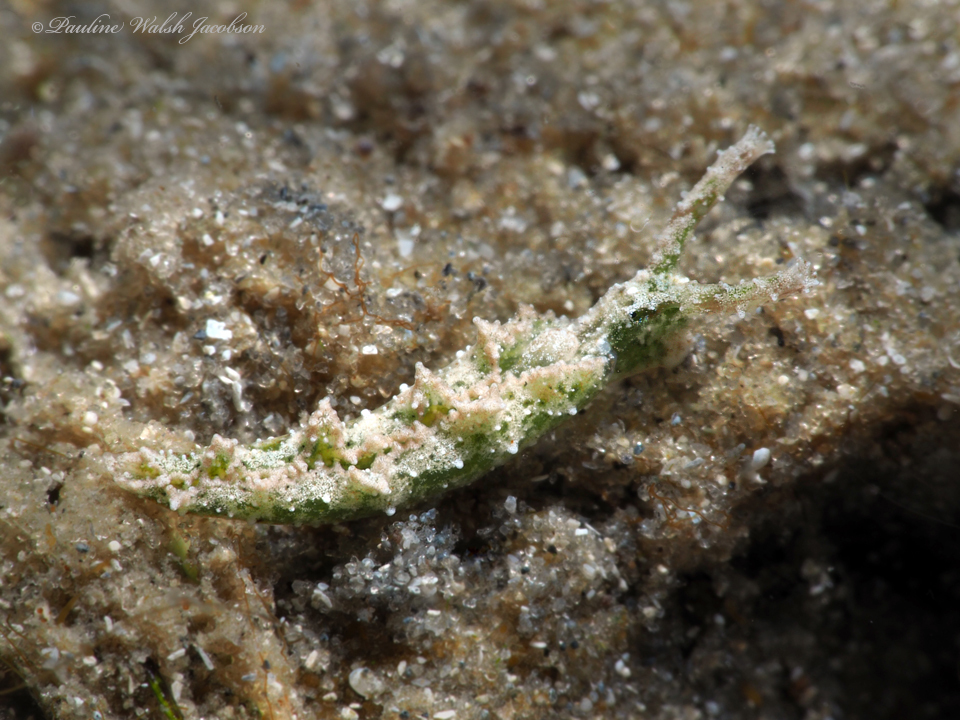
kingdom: Animalia
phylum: Mollusca
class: Gastropoda
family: Plakobranchidae
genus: Elysia
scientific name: Elysia papillosa
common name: Papillose elysia
